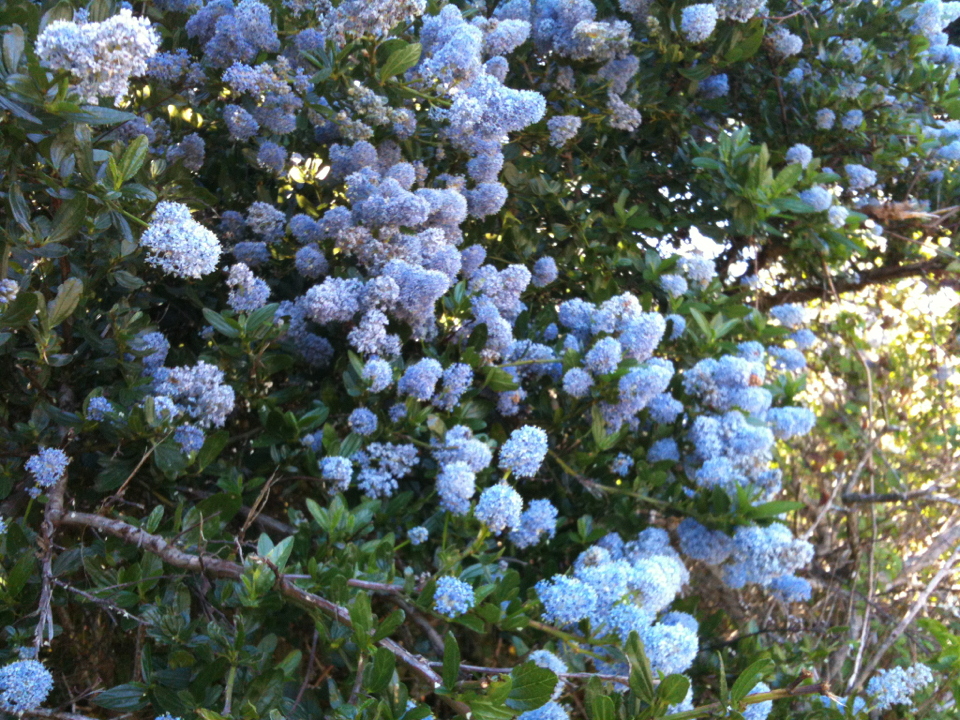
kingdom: Plantae
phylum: Tracheophyta
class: Magnoliopsida
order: Rosales
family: Rhamnaceae
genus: Ceanothus
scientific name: Ceanothus thyrsiflorus
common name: California-lilac
